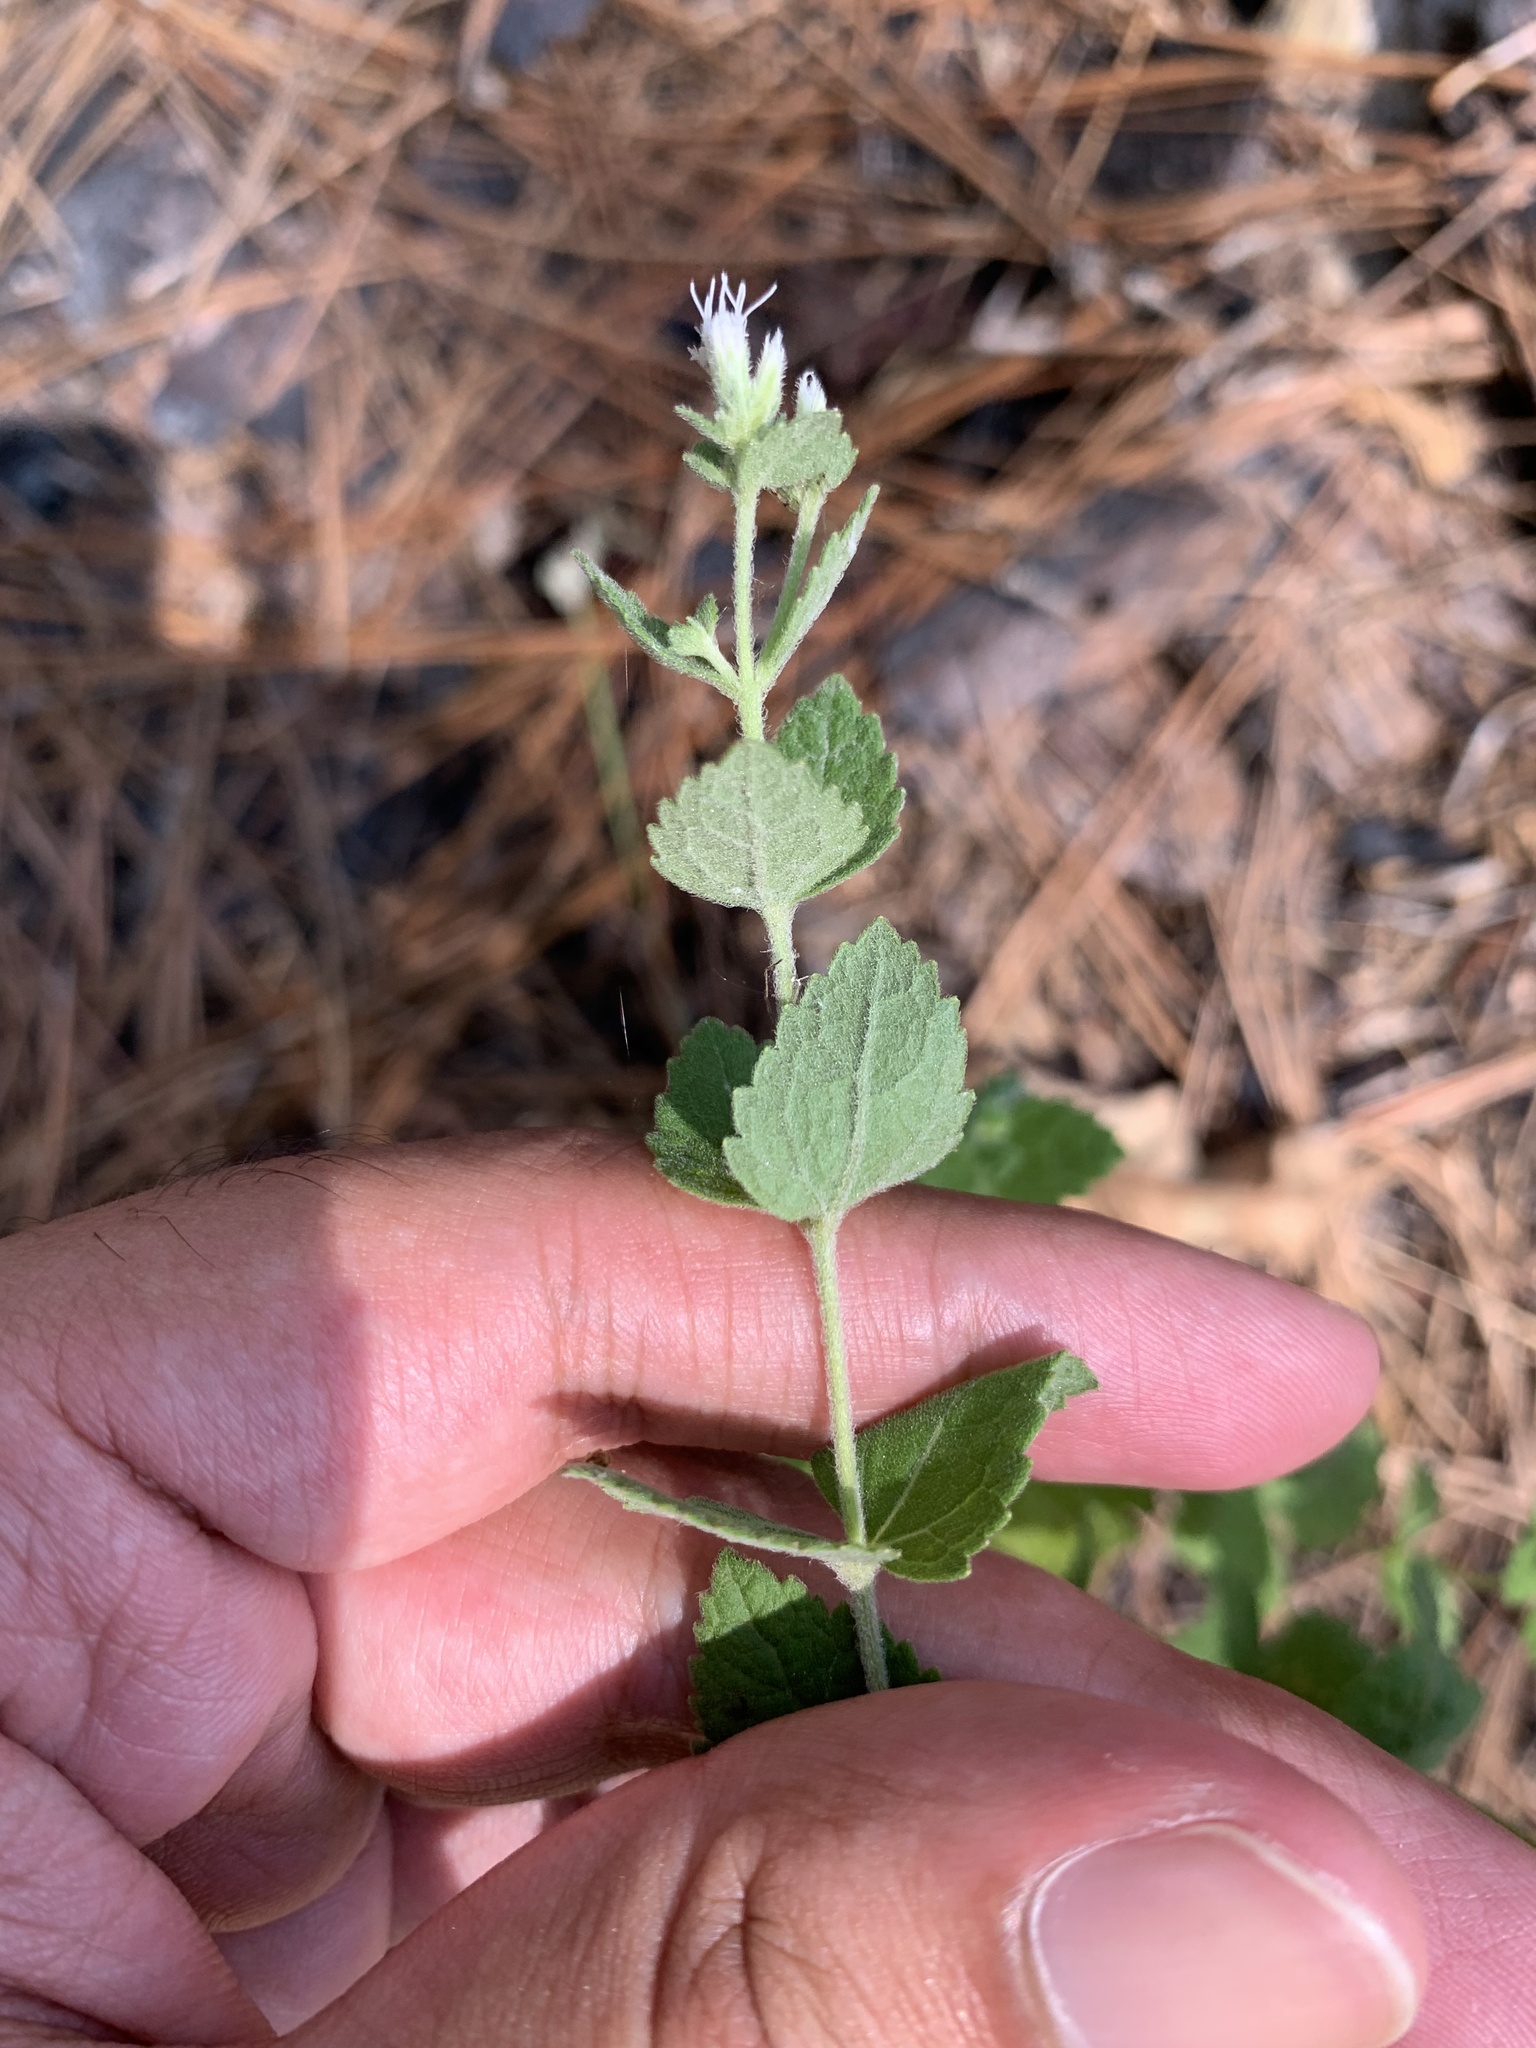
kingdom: Plantae
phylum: Tracheophyta
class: Magnoliopsida
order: Asterales
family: Asteraceae
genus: Eupatorium
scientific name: Eupatorium rotundifolium
